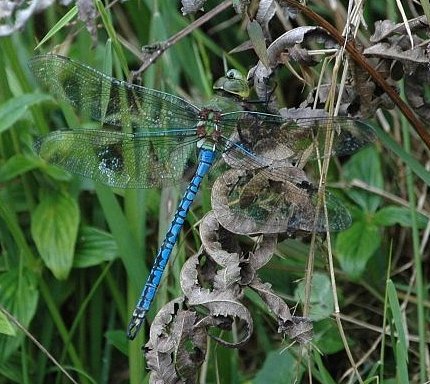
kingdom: Animalia
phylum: Arthropoda
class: Insecta
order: Odonata
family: Aeshnidae
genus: Anax
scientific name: Anax tumorifer
